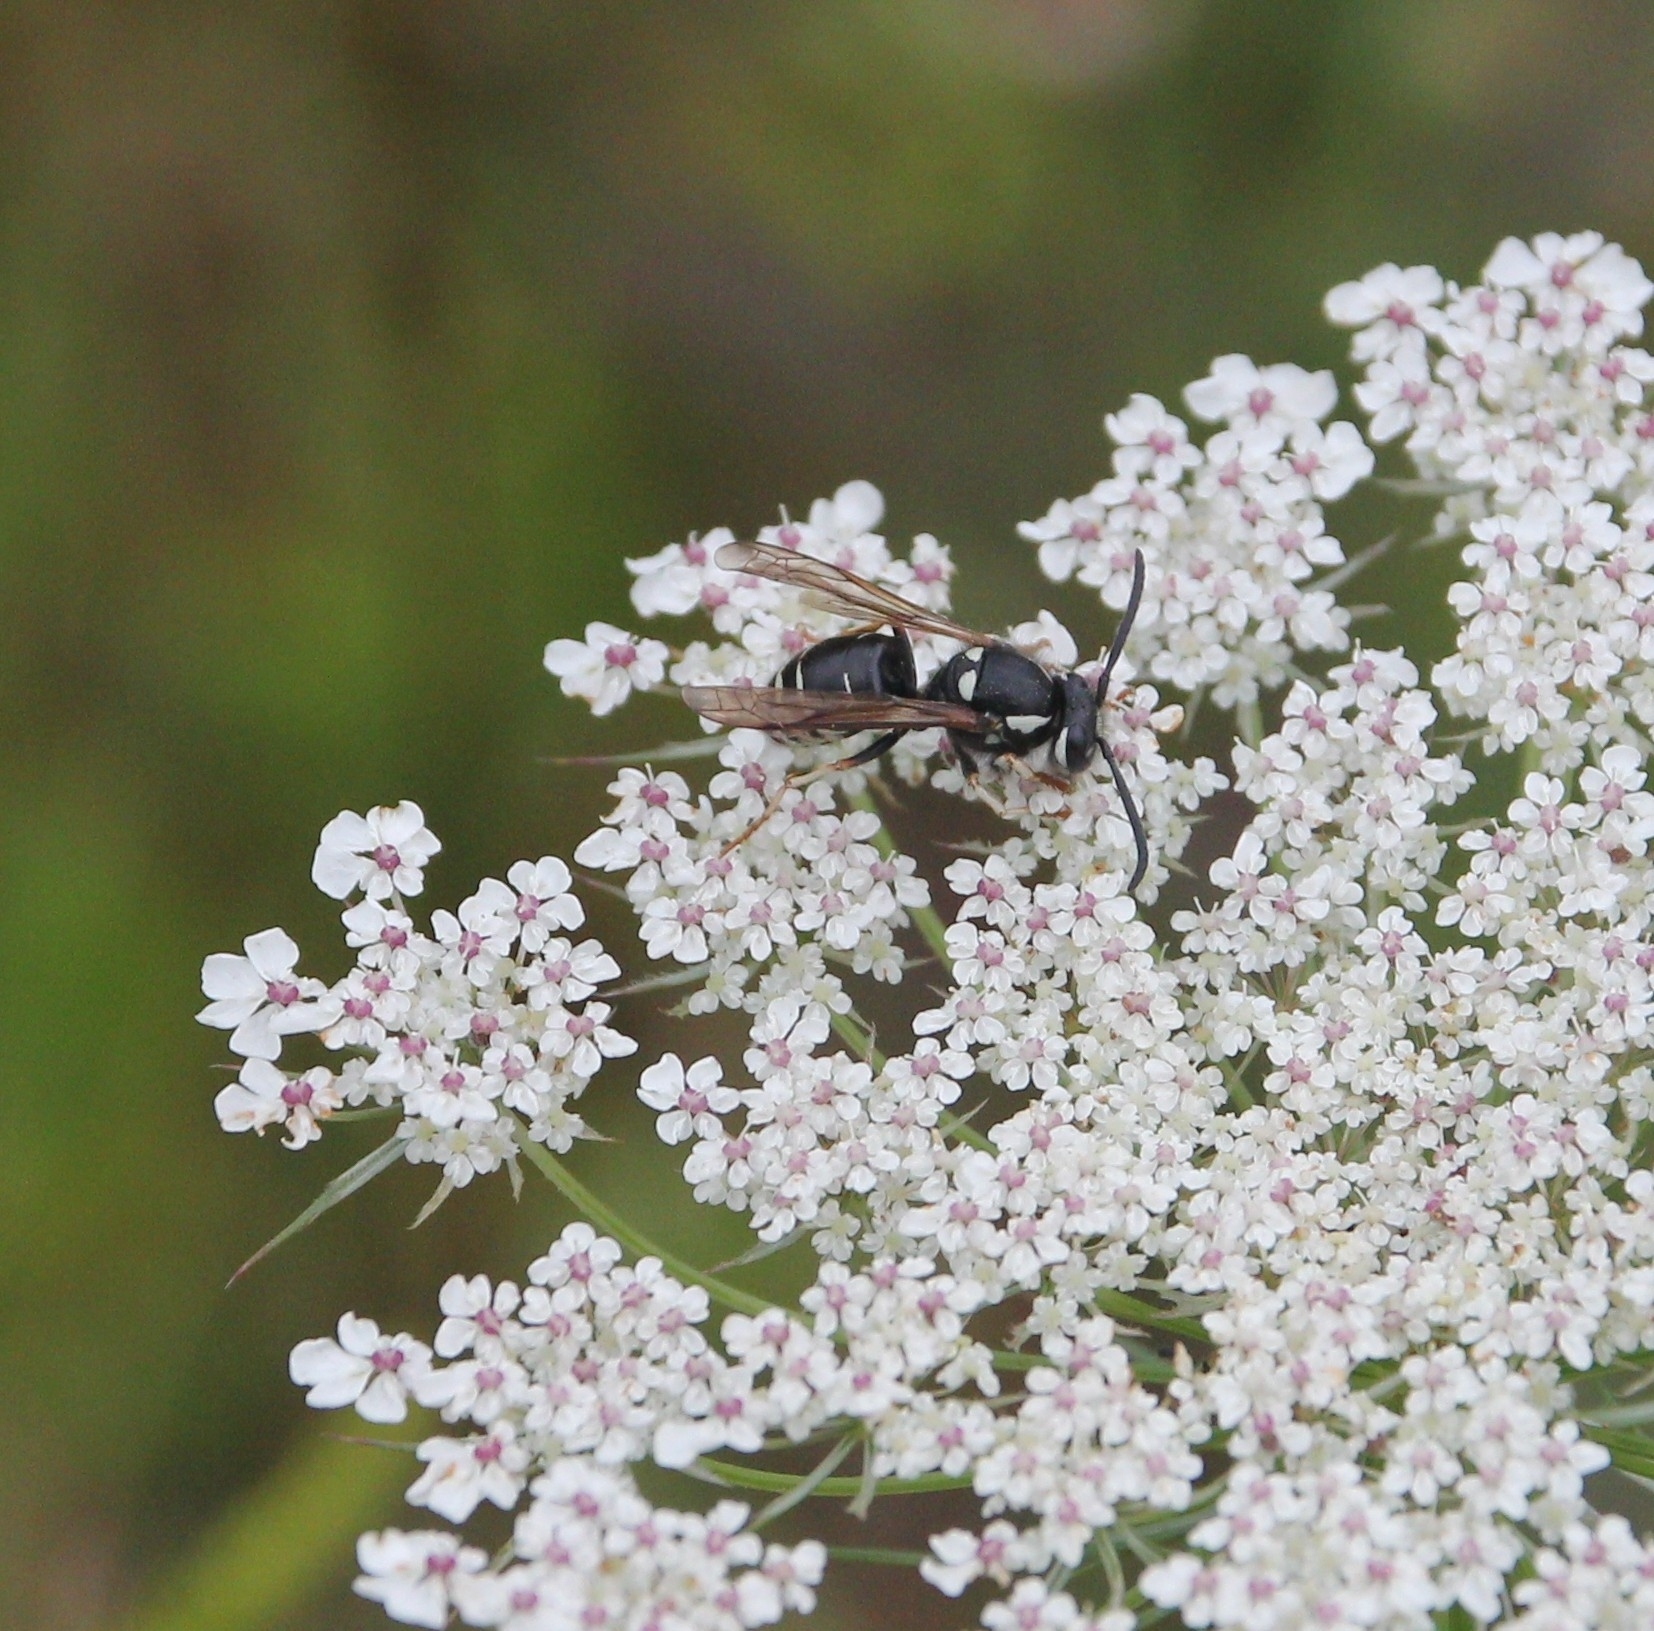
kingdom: Animalia
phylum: Arthropoda
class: Insecta
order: Hymenoptera
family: Vespidae
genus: Vespula
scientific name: Vespula consobrina
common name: Blackjacket
